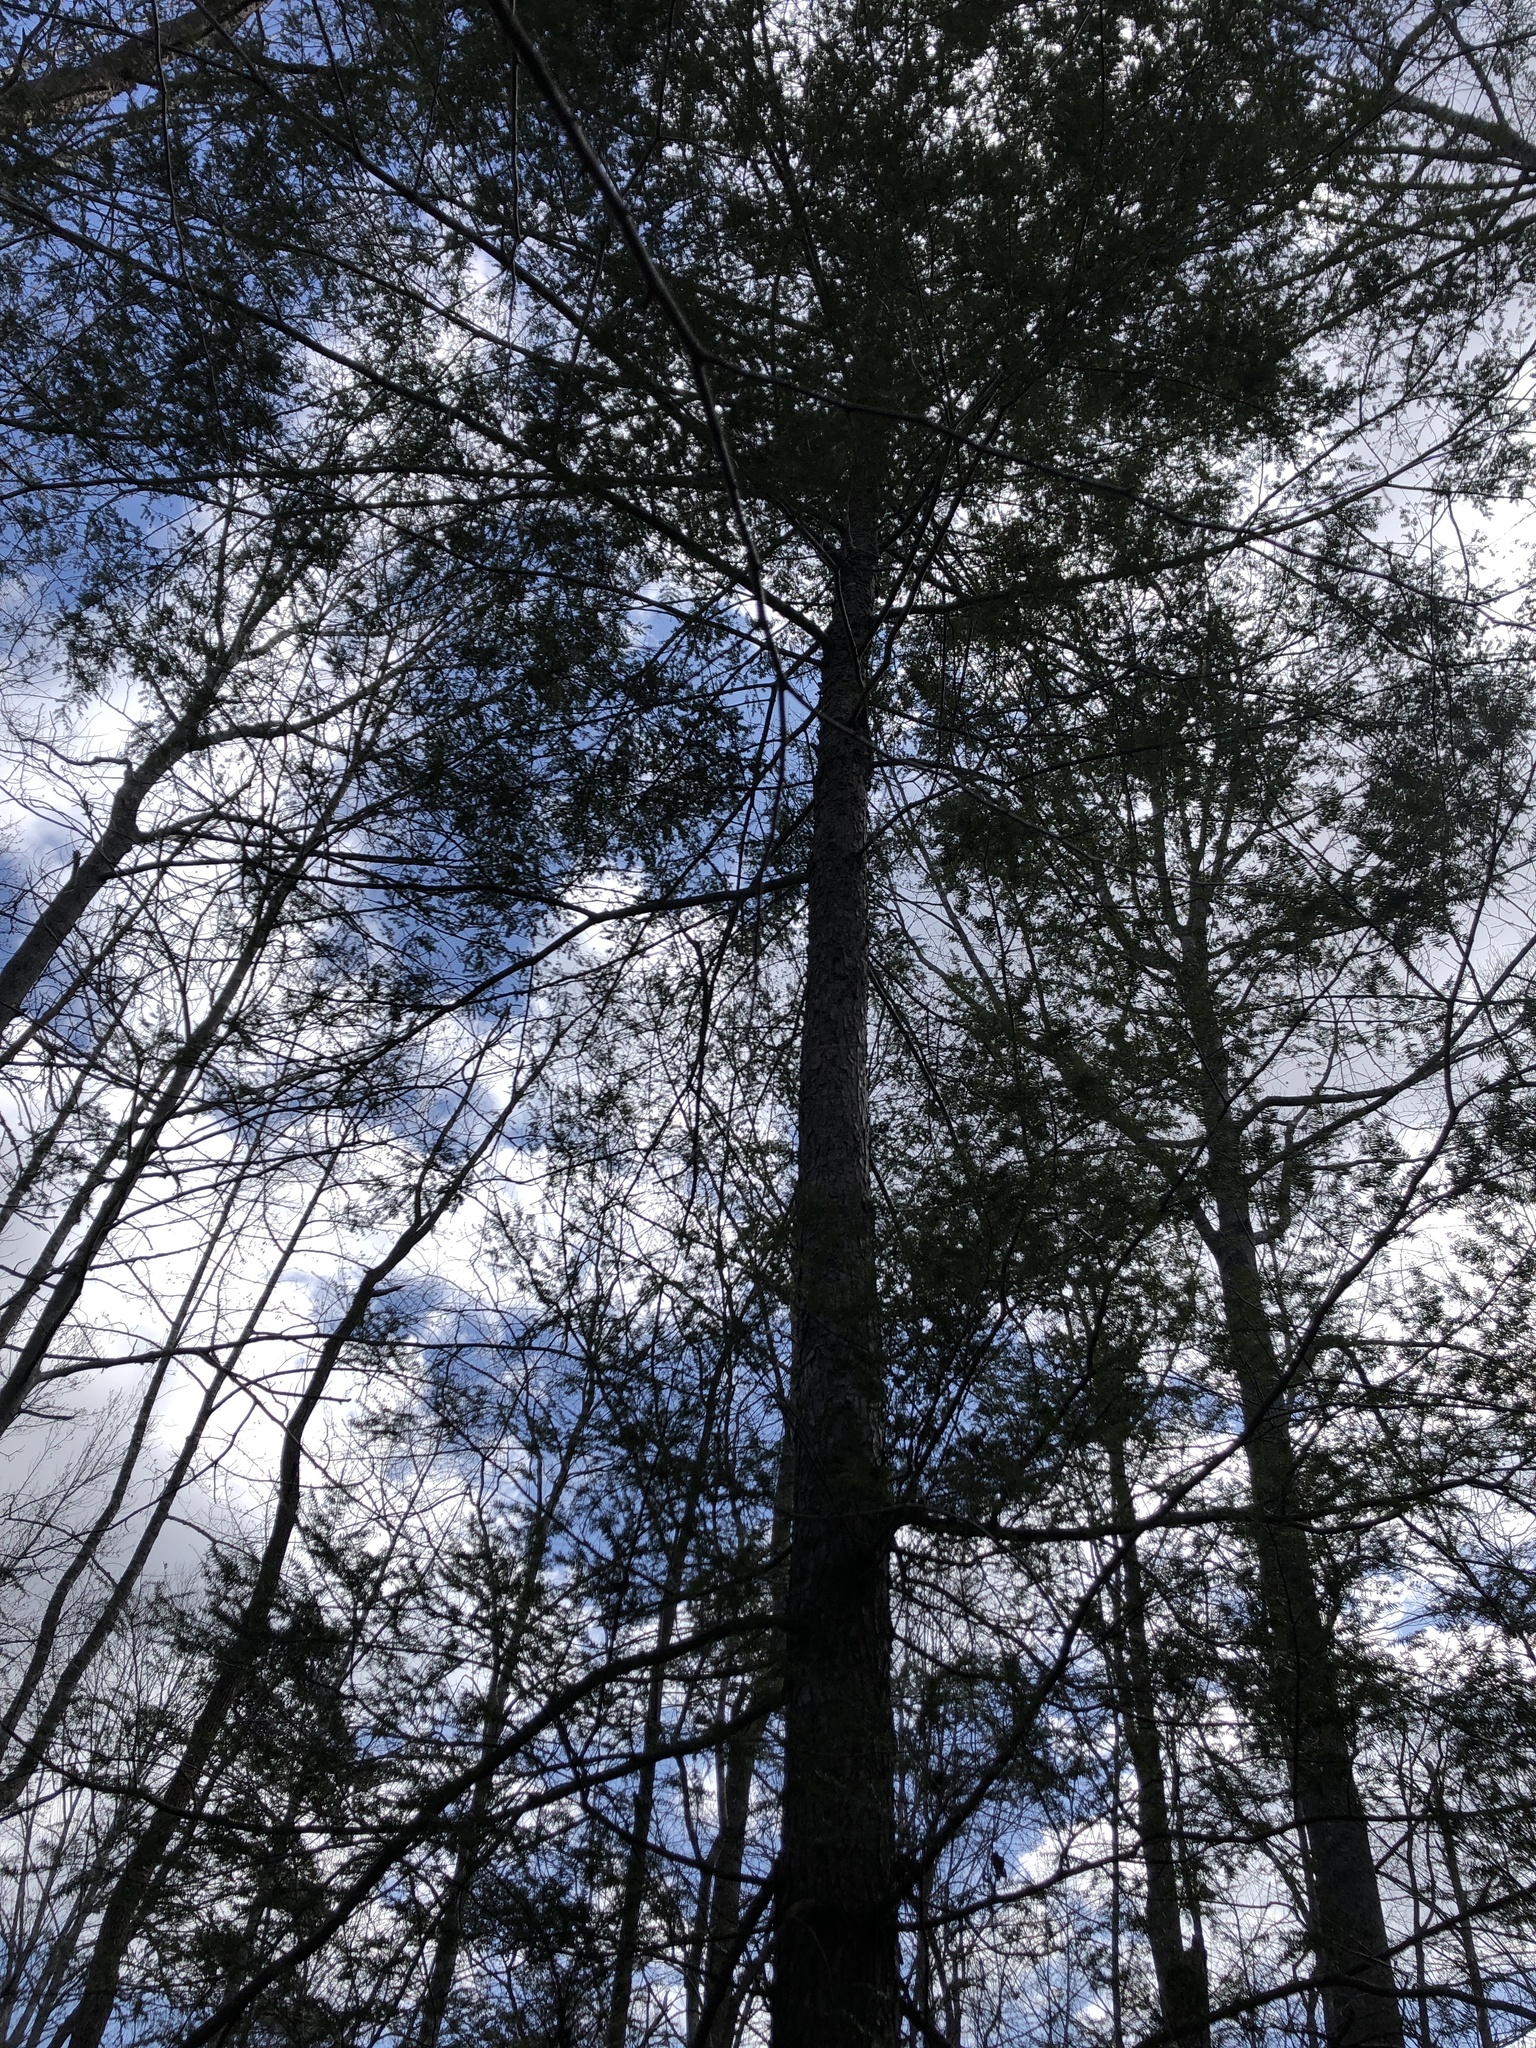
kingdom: Plantae
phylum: Tracheophyta
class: Pinopsida
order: Pinales
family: Pinaceae
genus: Tsuga
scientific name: Tsuga canadensis
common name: Eastern hemlock
